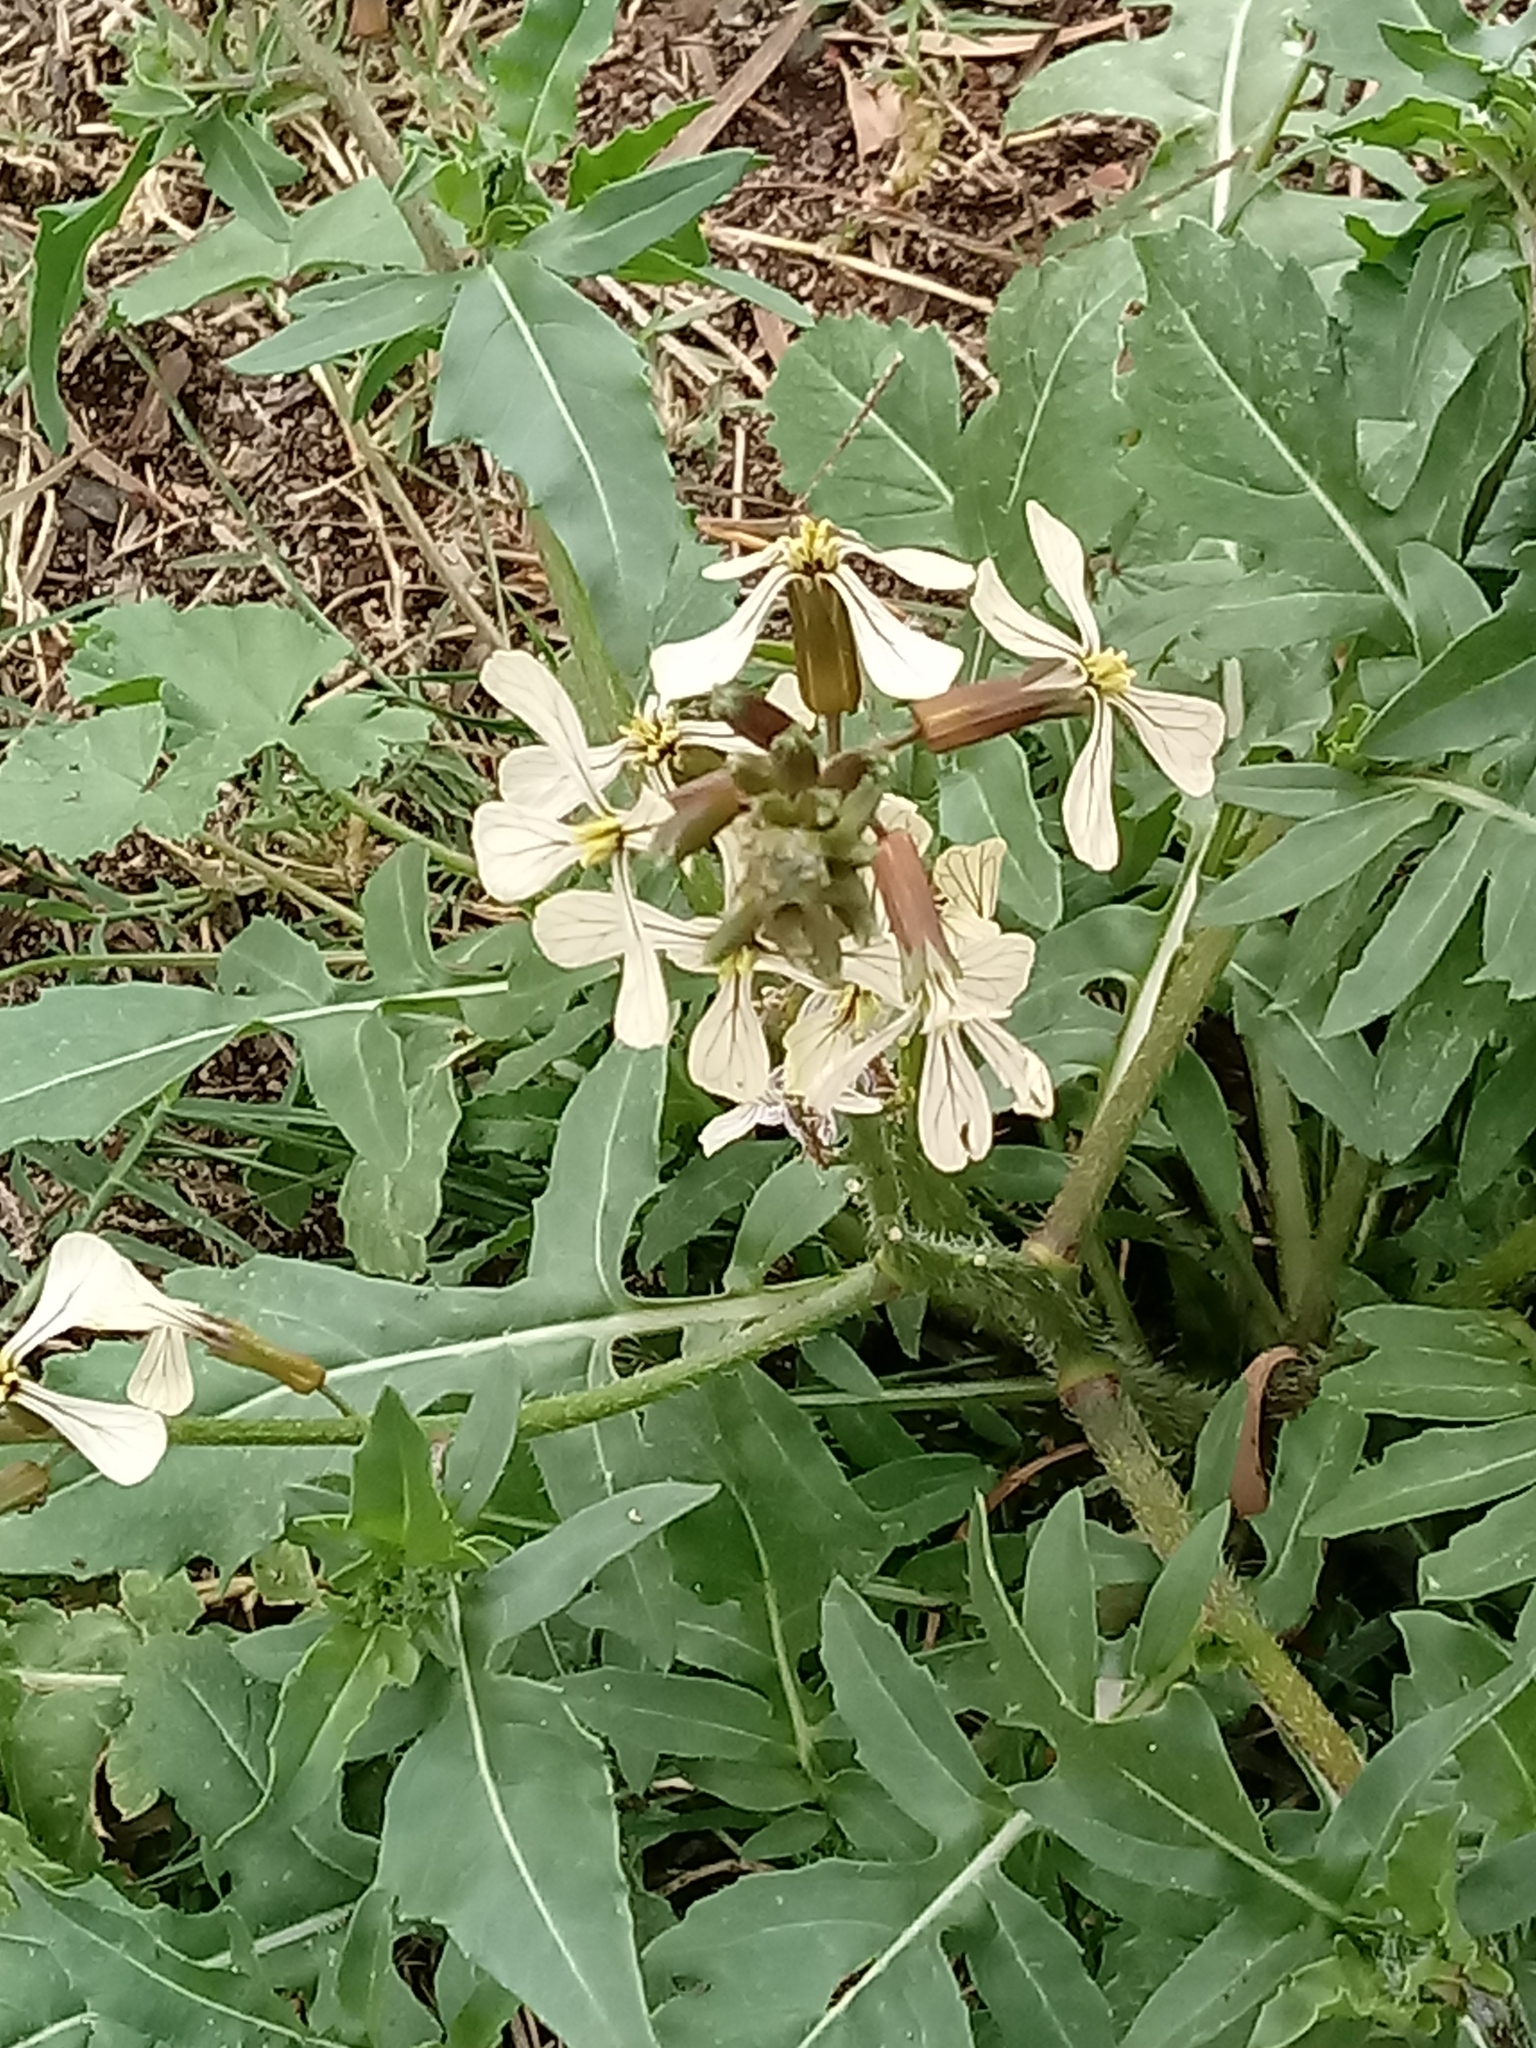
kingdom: Plantae
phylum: Tracheophyta
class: Magnoliopsida
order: Brassicales
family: Brassicaceae
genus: Eruca
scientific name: Eruca vesicaria
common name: Garden rocket
